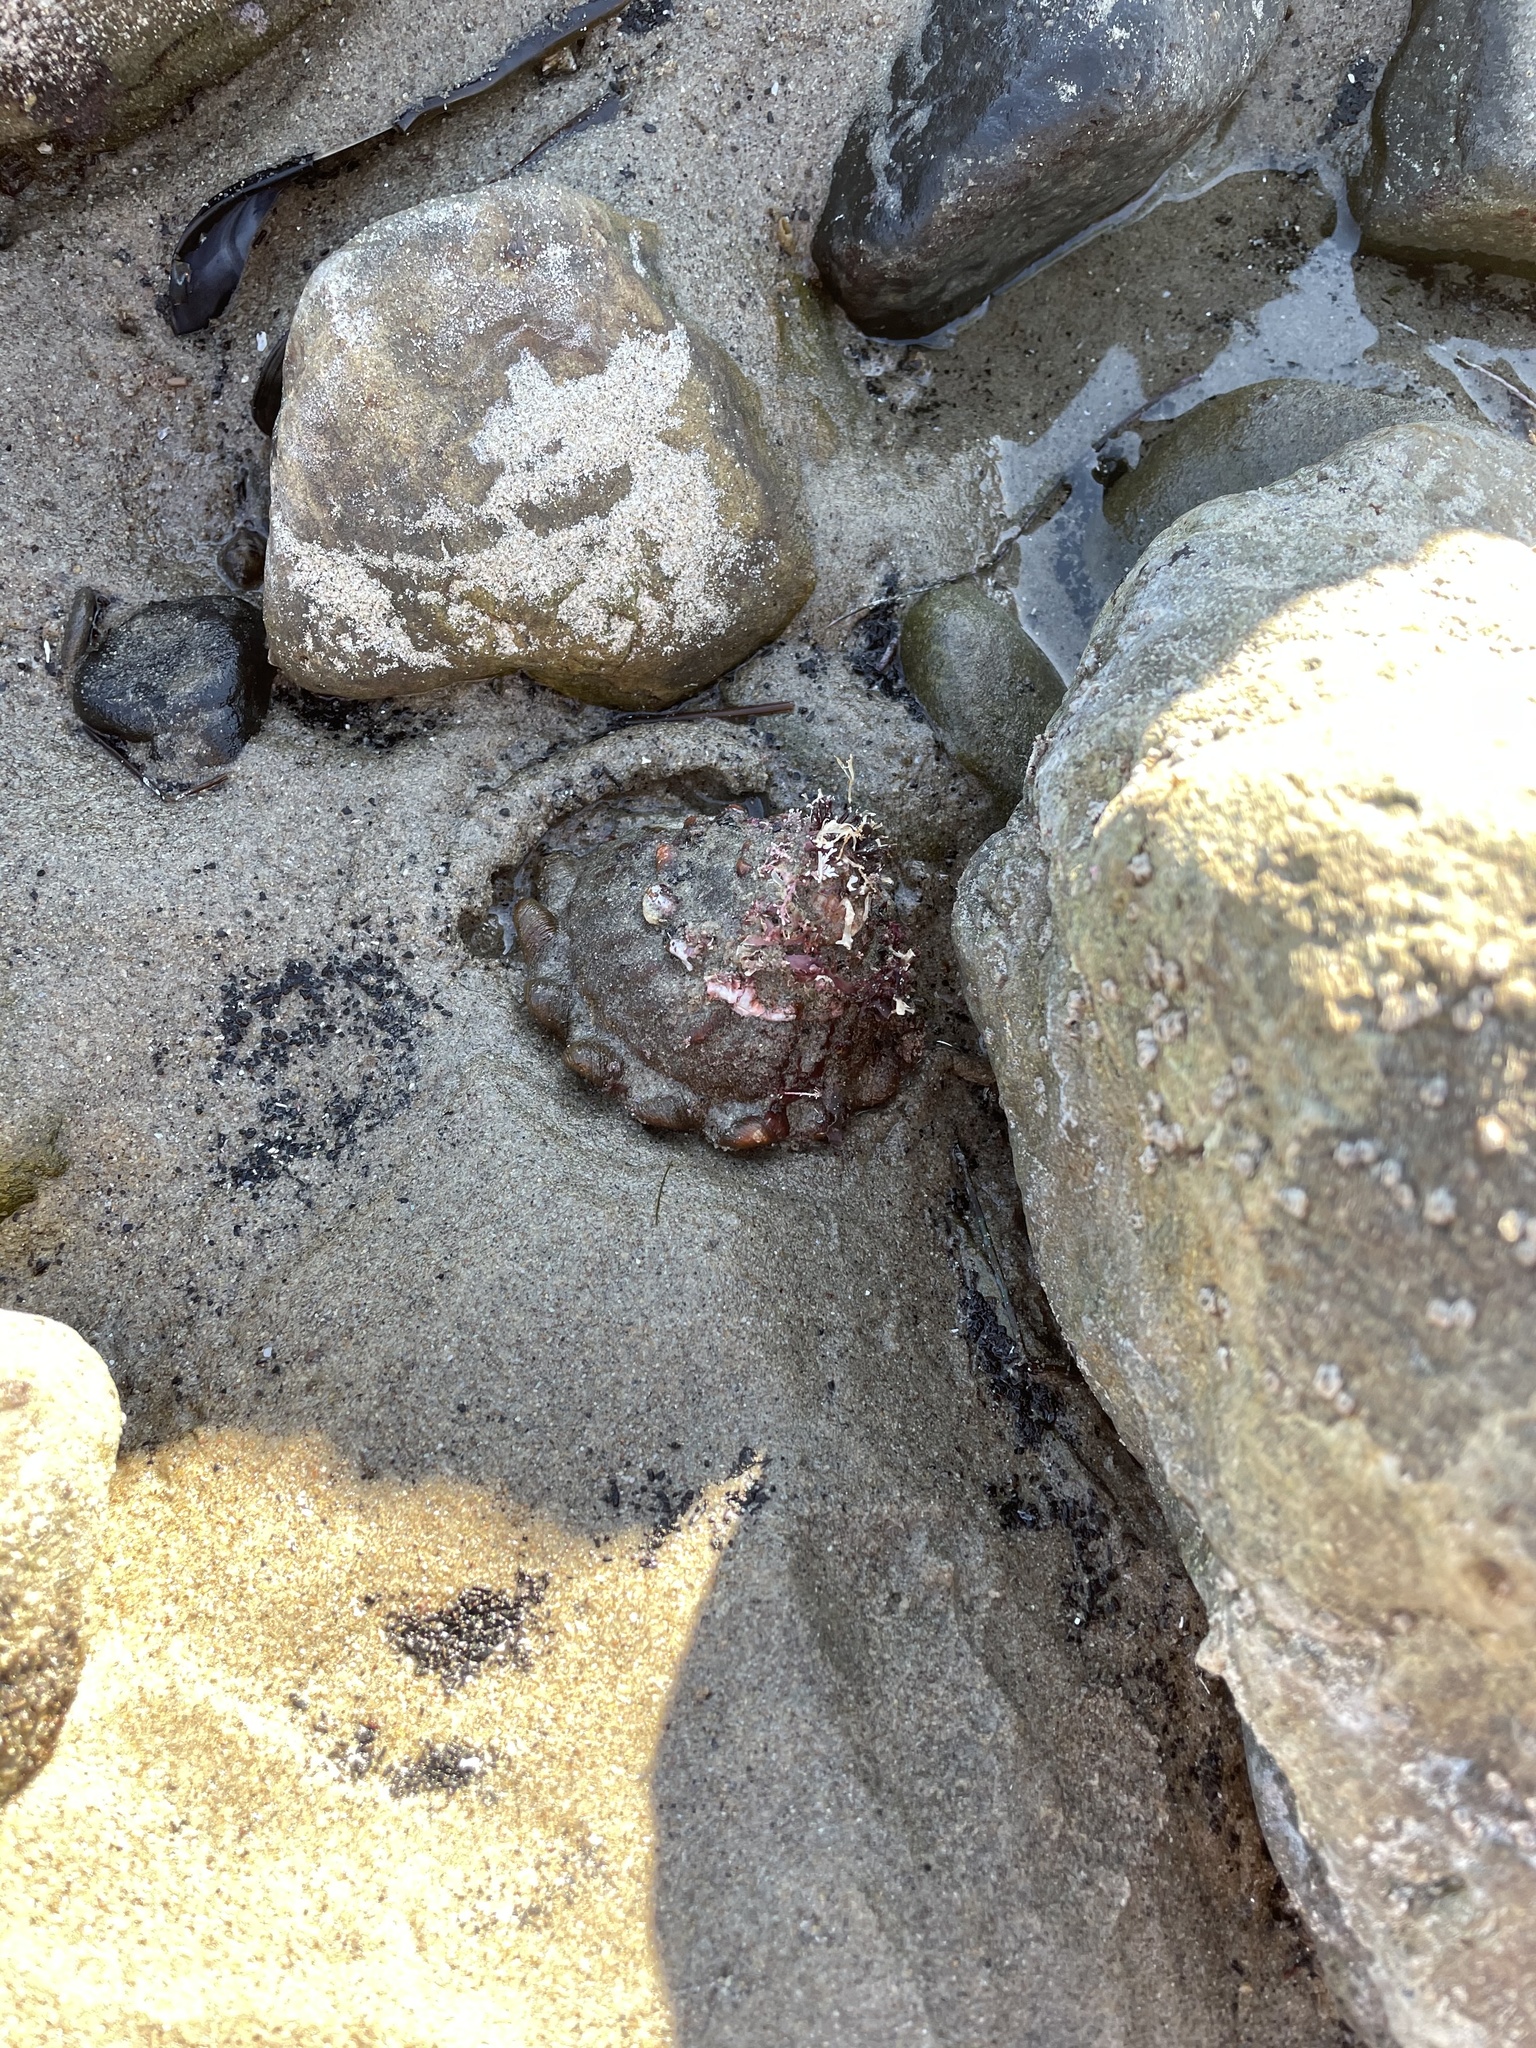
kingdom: Animalia
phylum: Mollusca
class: Gastropoda
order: Trochida
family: Turbinidae
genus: Megastraea
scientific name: Megastraea undosa
